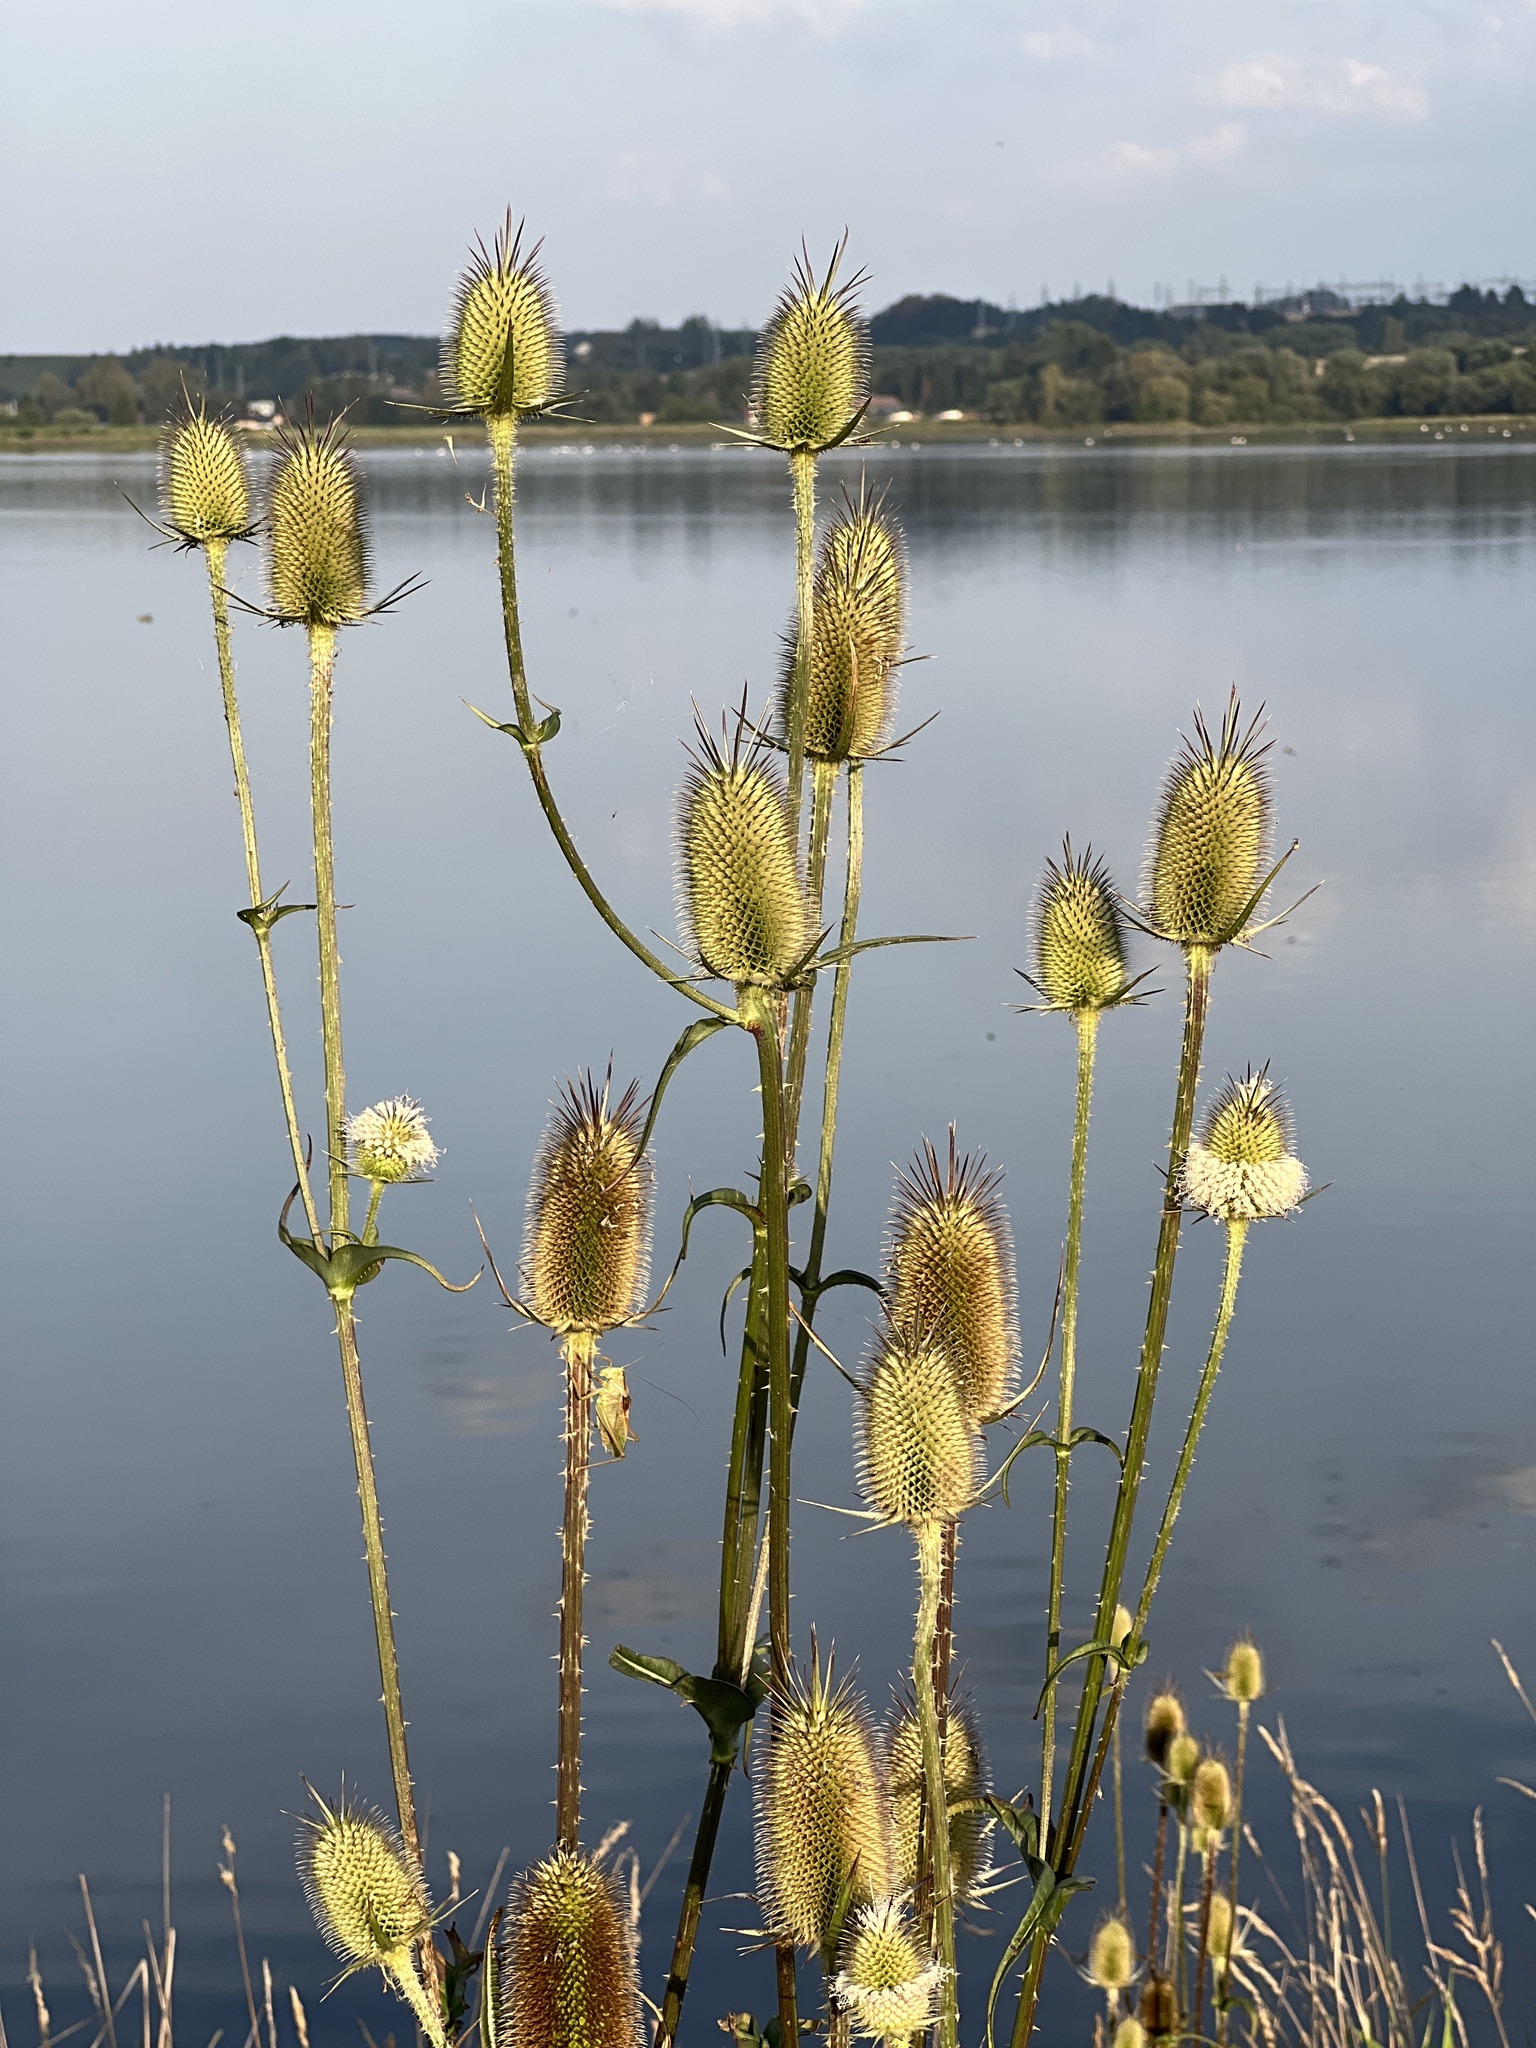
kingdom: Plantae
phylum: Tracheophyta
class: Magnoliopsida
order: Dipsacales
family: Caprifoliaceae
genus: Dipsacus
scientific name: Dipsacus laciniatus
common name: Cut-leaved teasel
